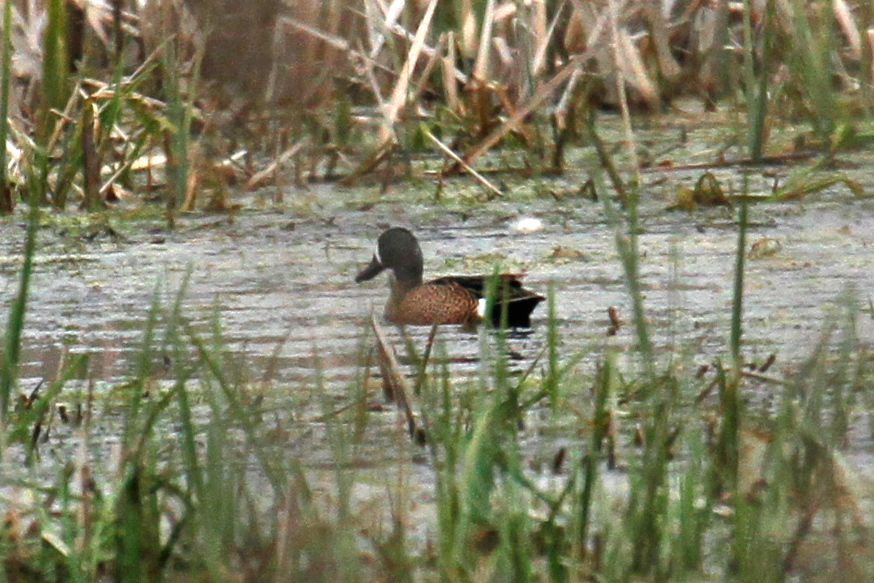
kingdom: Animalia
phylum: Chordata
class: Aves
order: Anseriformes
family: Anatidae
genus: Spatula
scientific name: Spatula discors
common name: Blue-winged teal
